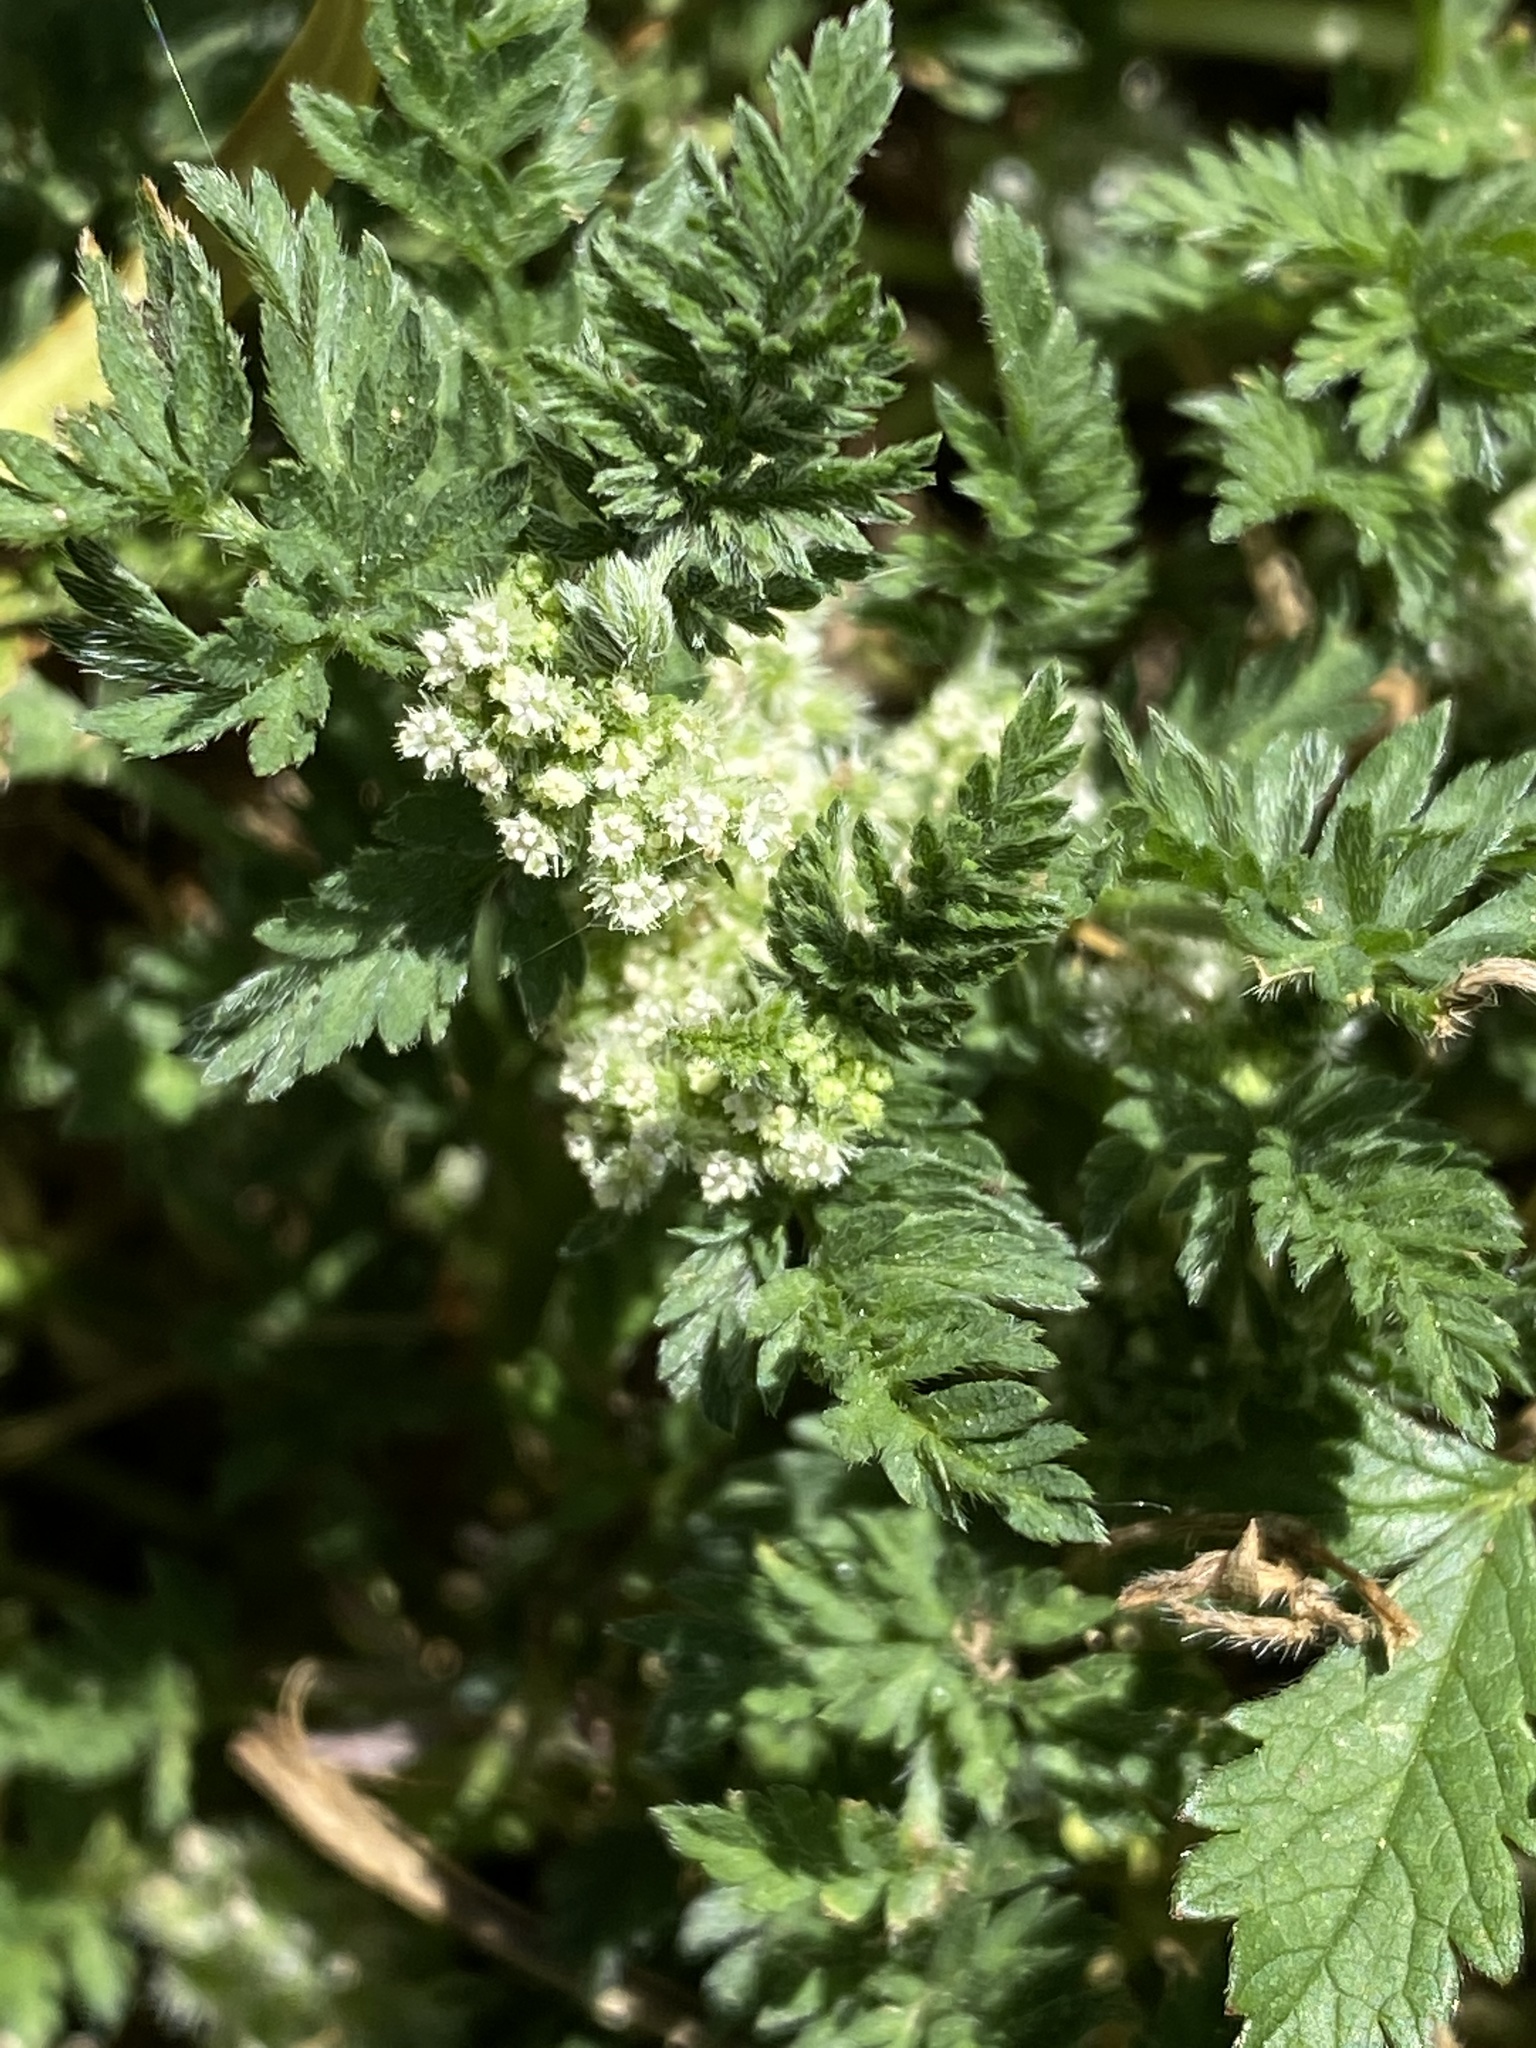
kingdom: Plantae
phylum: Tracheophyta
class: Magnoliopsida
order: Apiales
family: Apiaceae
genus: Torilis
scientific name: Torilis nodosa
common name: Knotted hedge-parsley
